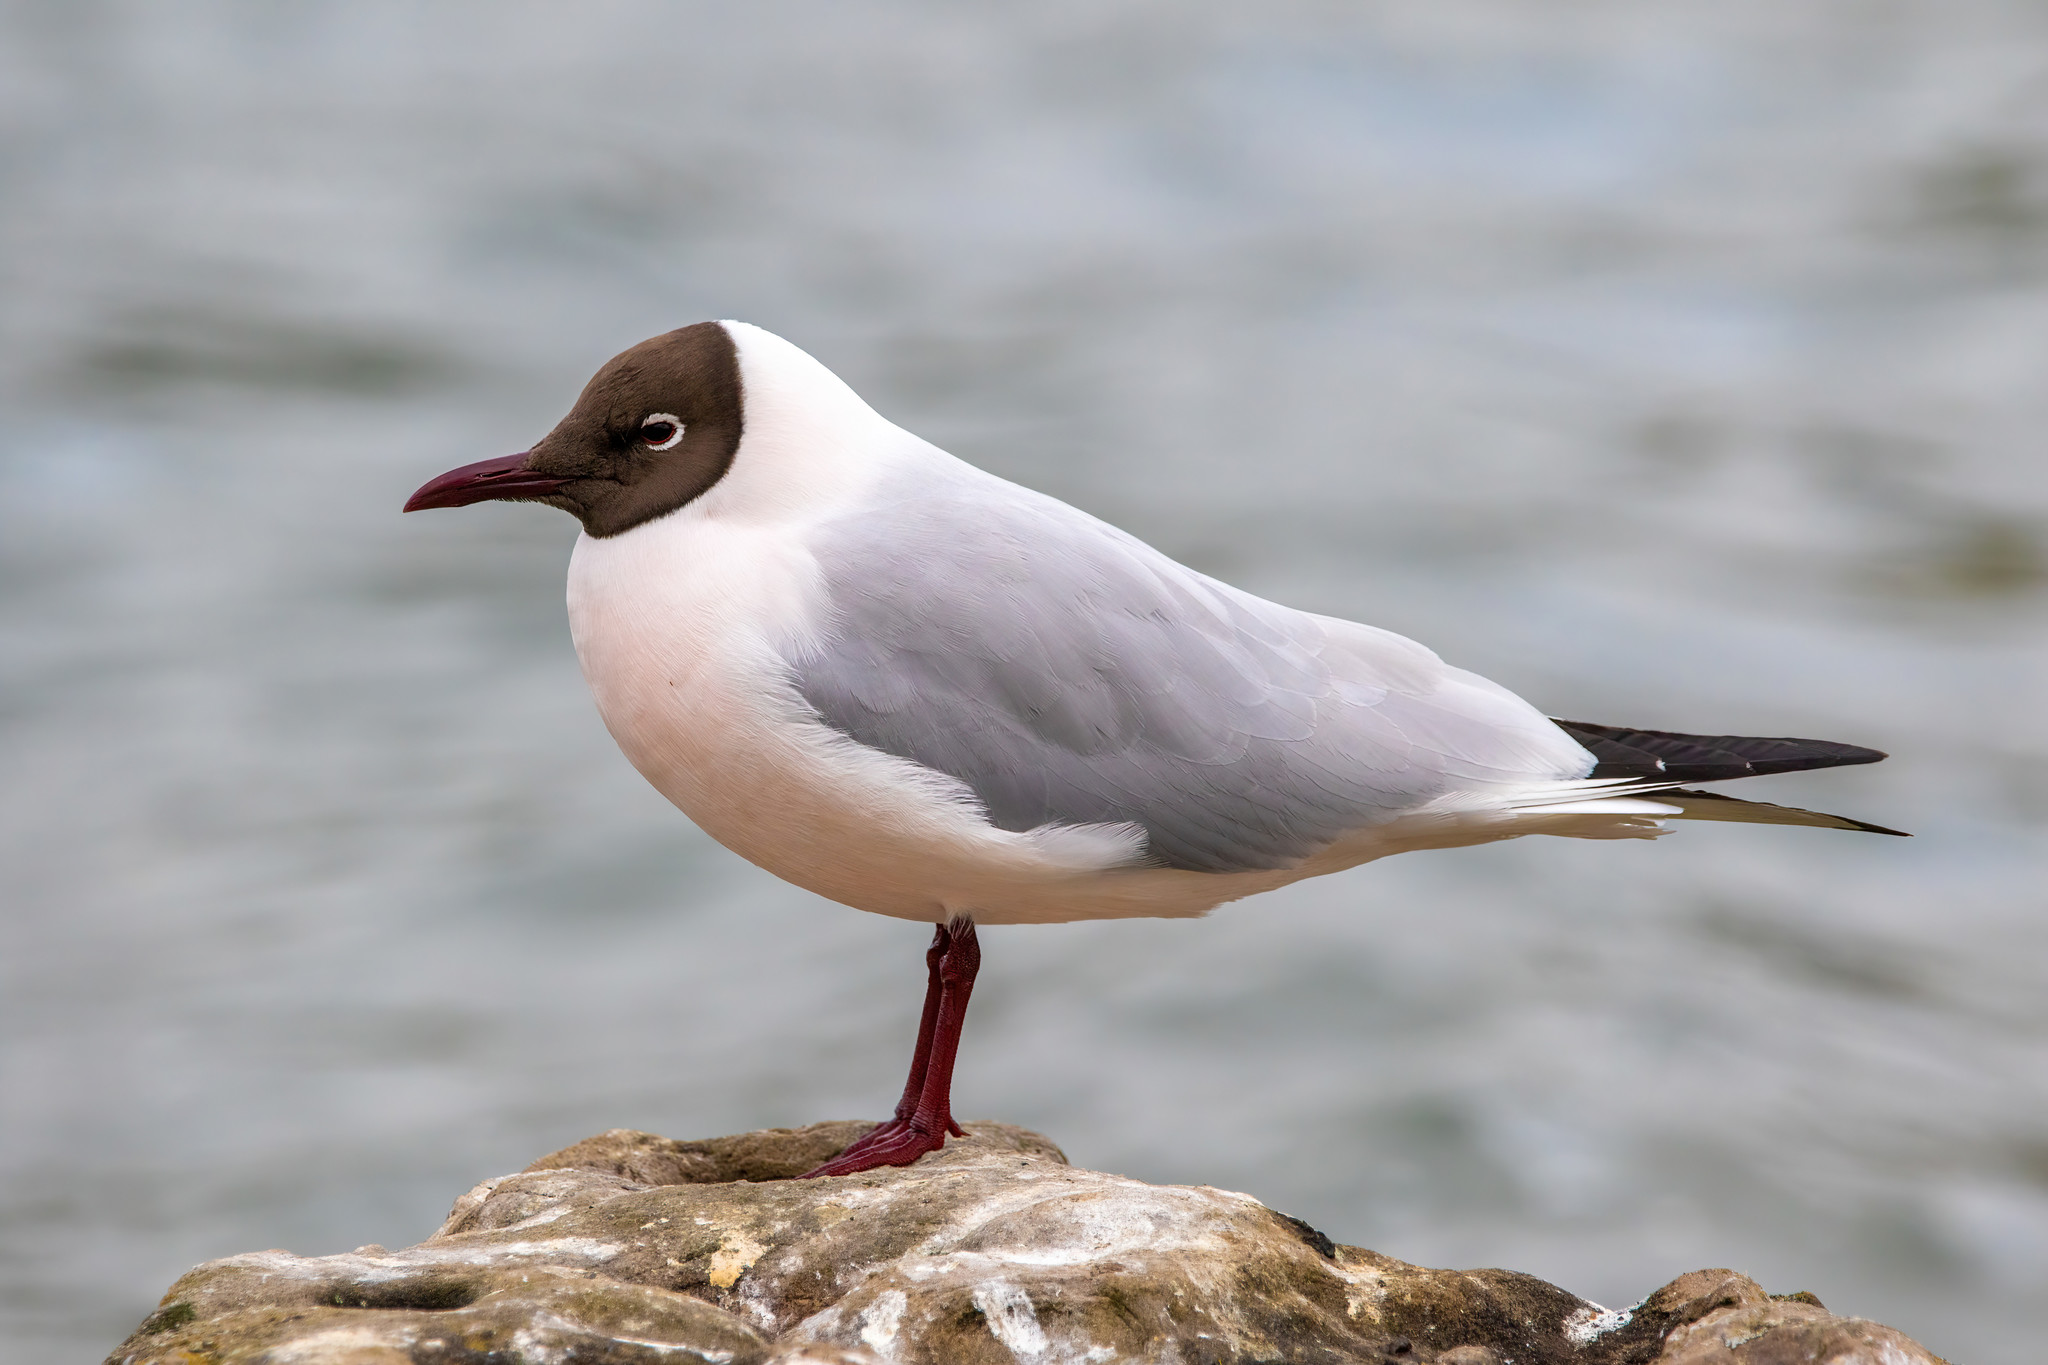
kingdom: Animalia
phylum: Chordata
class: Aves
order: Charadriiformes
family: Laridae
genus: Chroicocephalus
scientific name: Chroicocephalus ridibundus
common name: Black-headed gull
